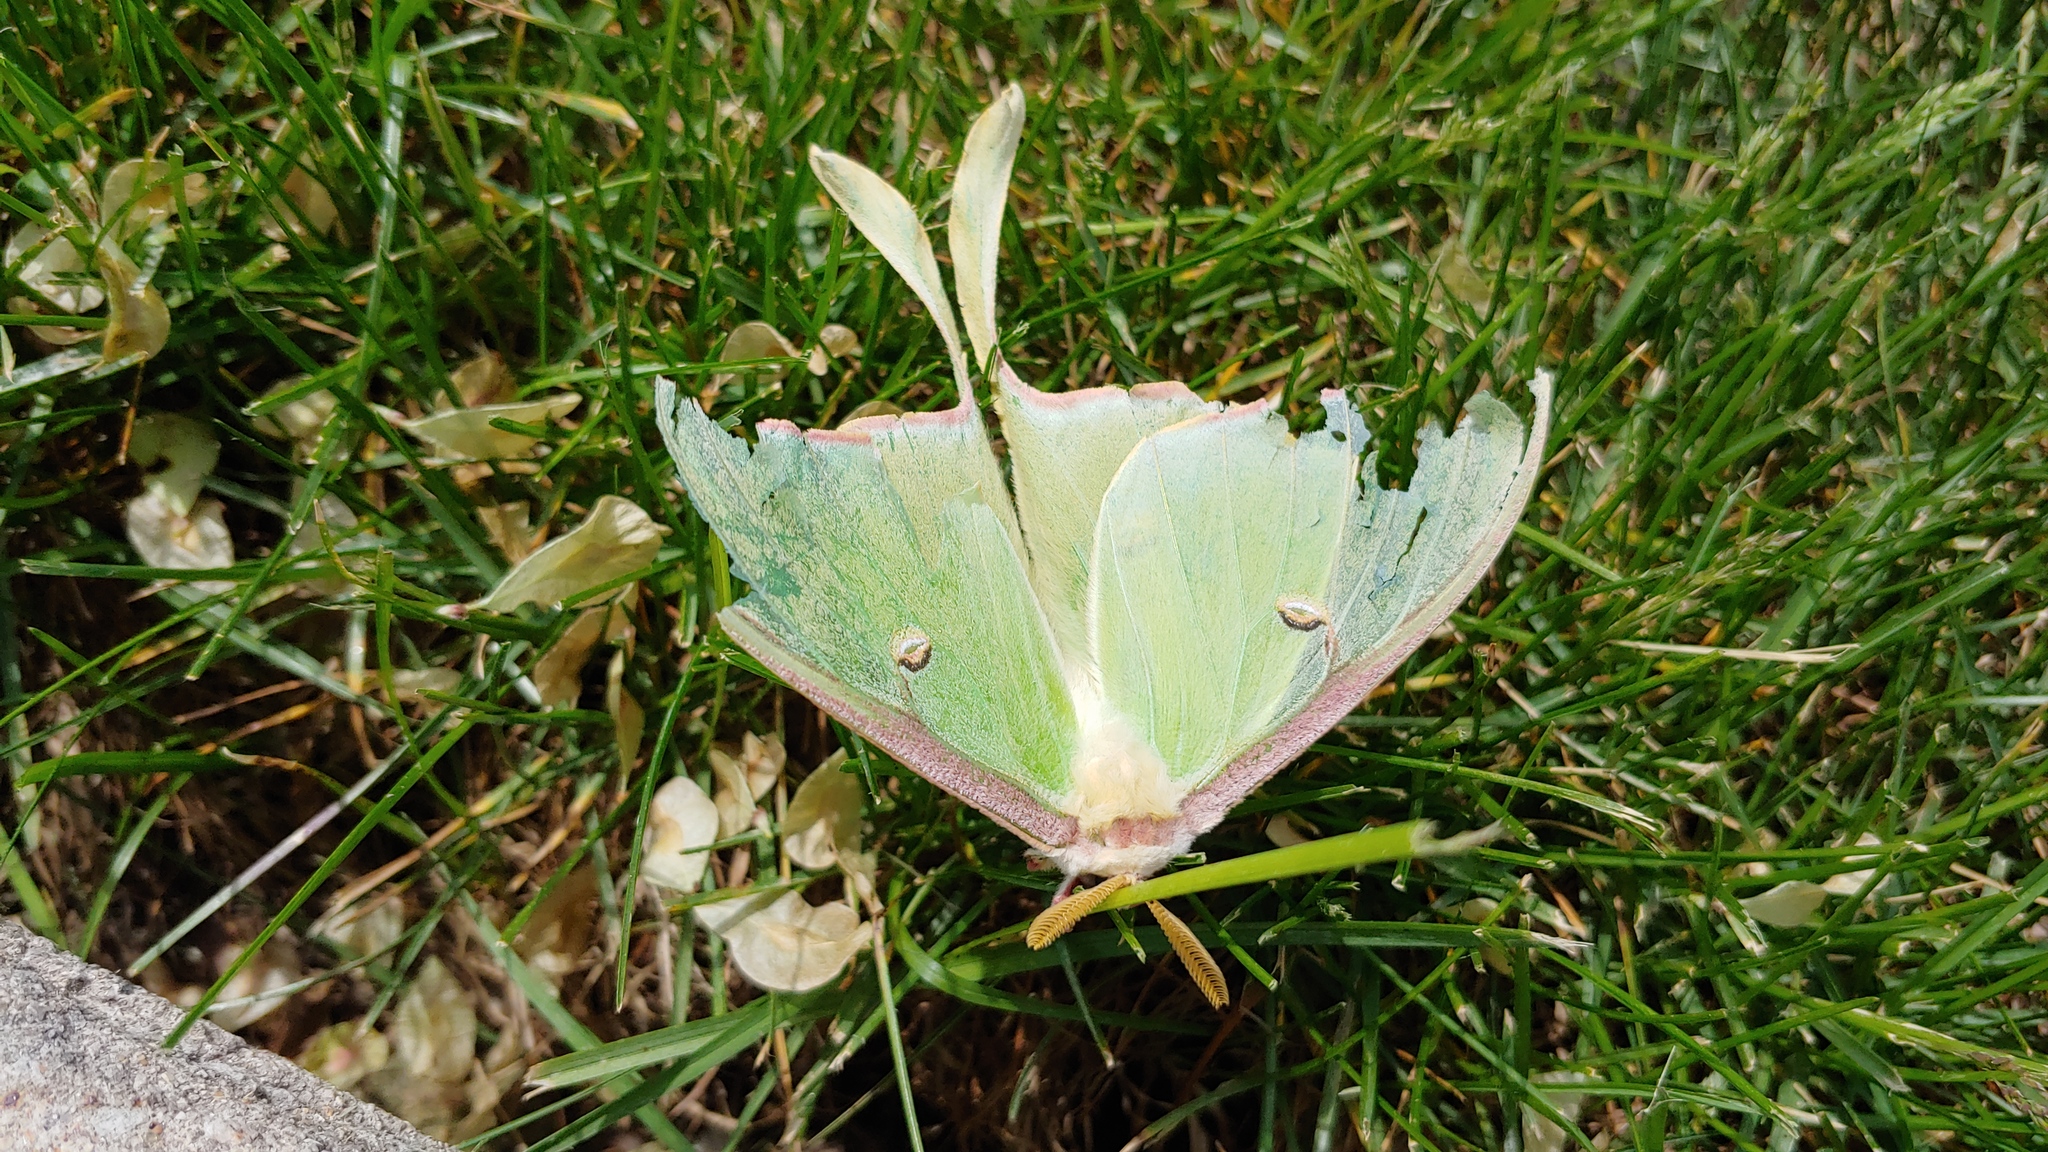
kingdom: Animalia
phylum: Arthropoda
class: Insecta
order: Lepidoptera
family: Saturniidae
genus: Actias
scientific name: Actias luna
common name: Luna moth
